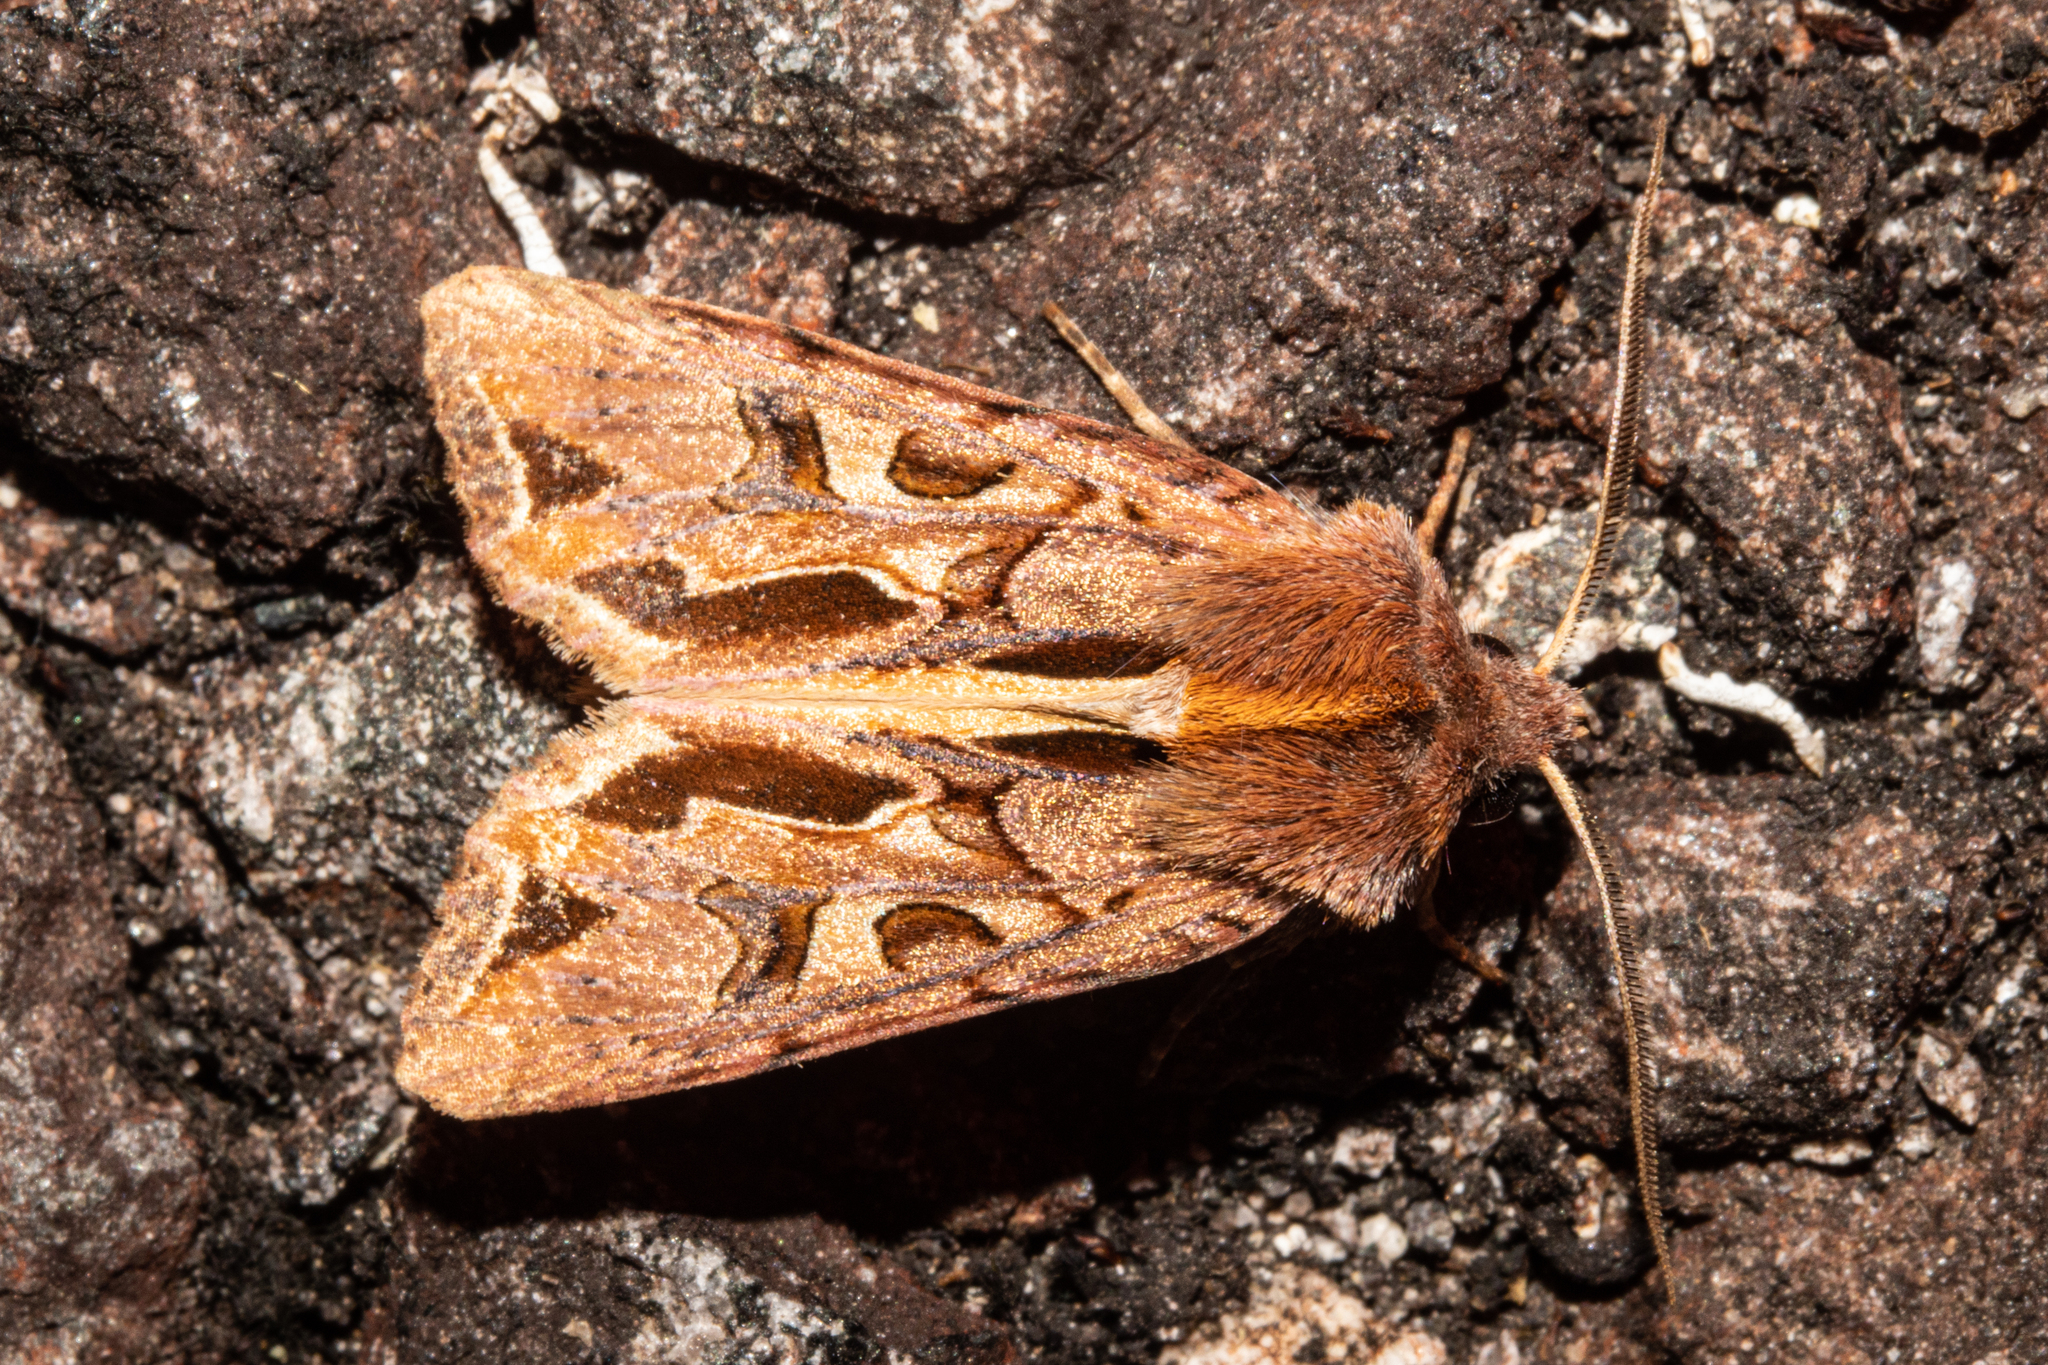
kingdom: Animalia
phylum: Arthropoda
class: Insecta
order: Lepidoptera
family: Noctuidae
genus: Ichneutica
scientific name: Ichneutica
